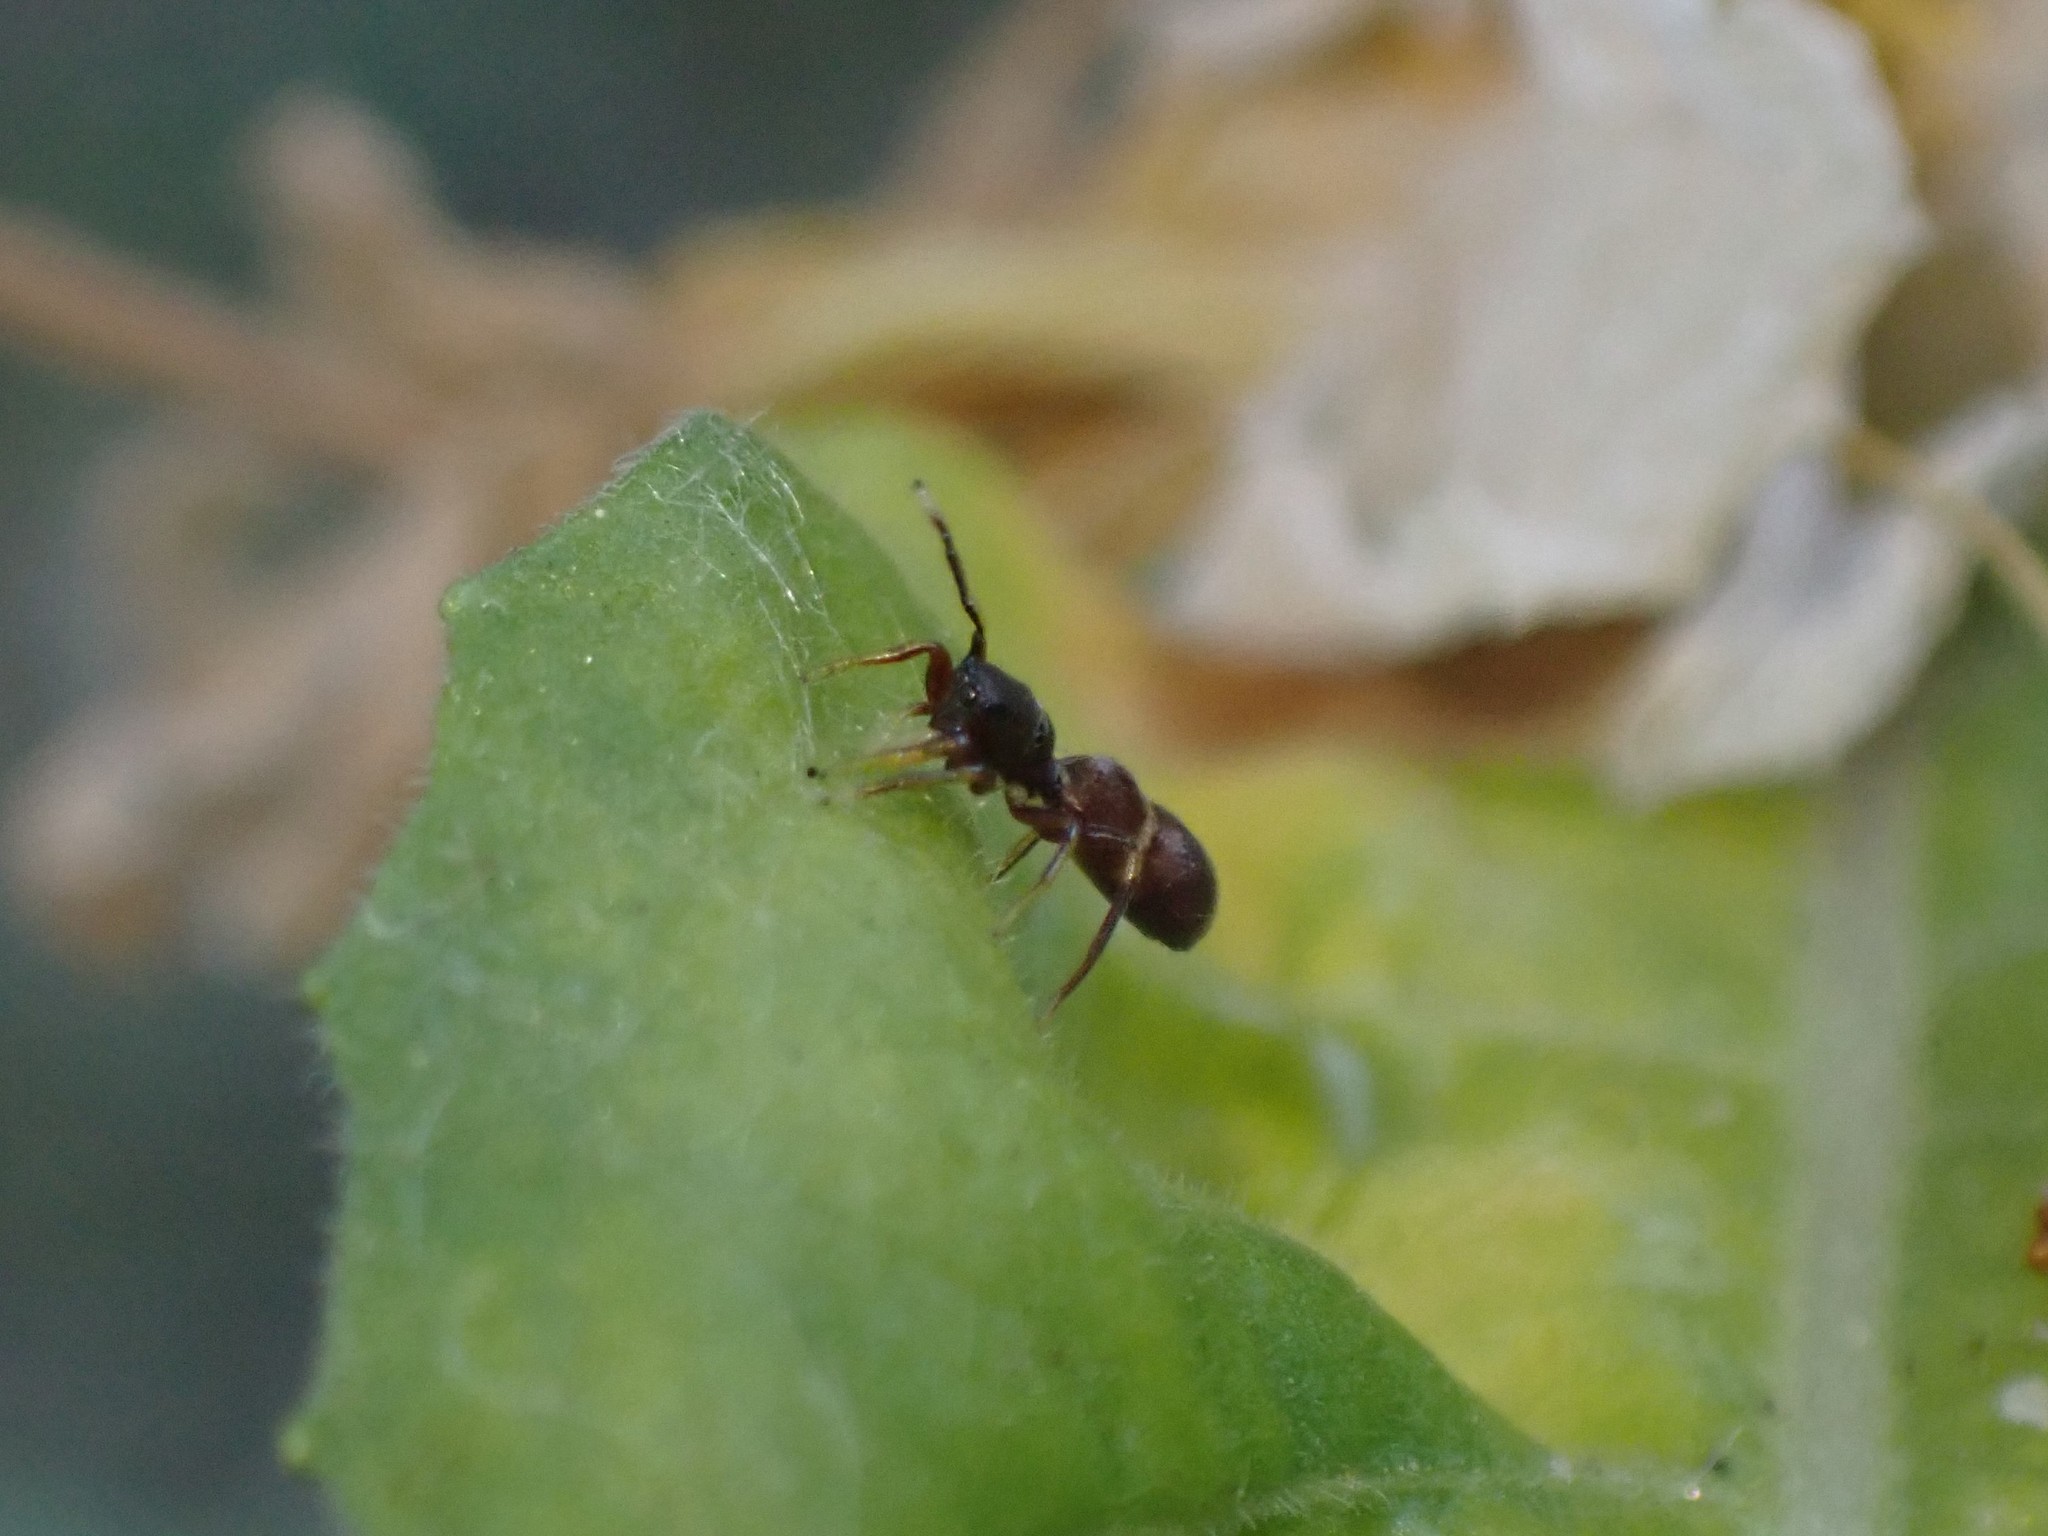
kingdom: Animalia
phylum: Arthropoda
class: Arachnida
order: Araneae
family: Salticidae
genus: Synageles
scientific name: Synageles venator
